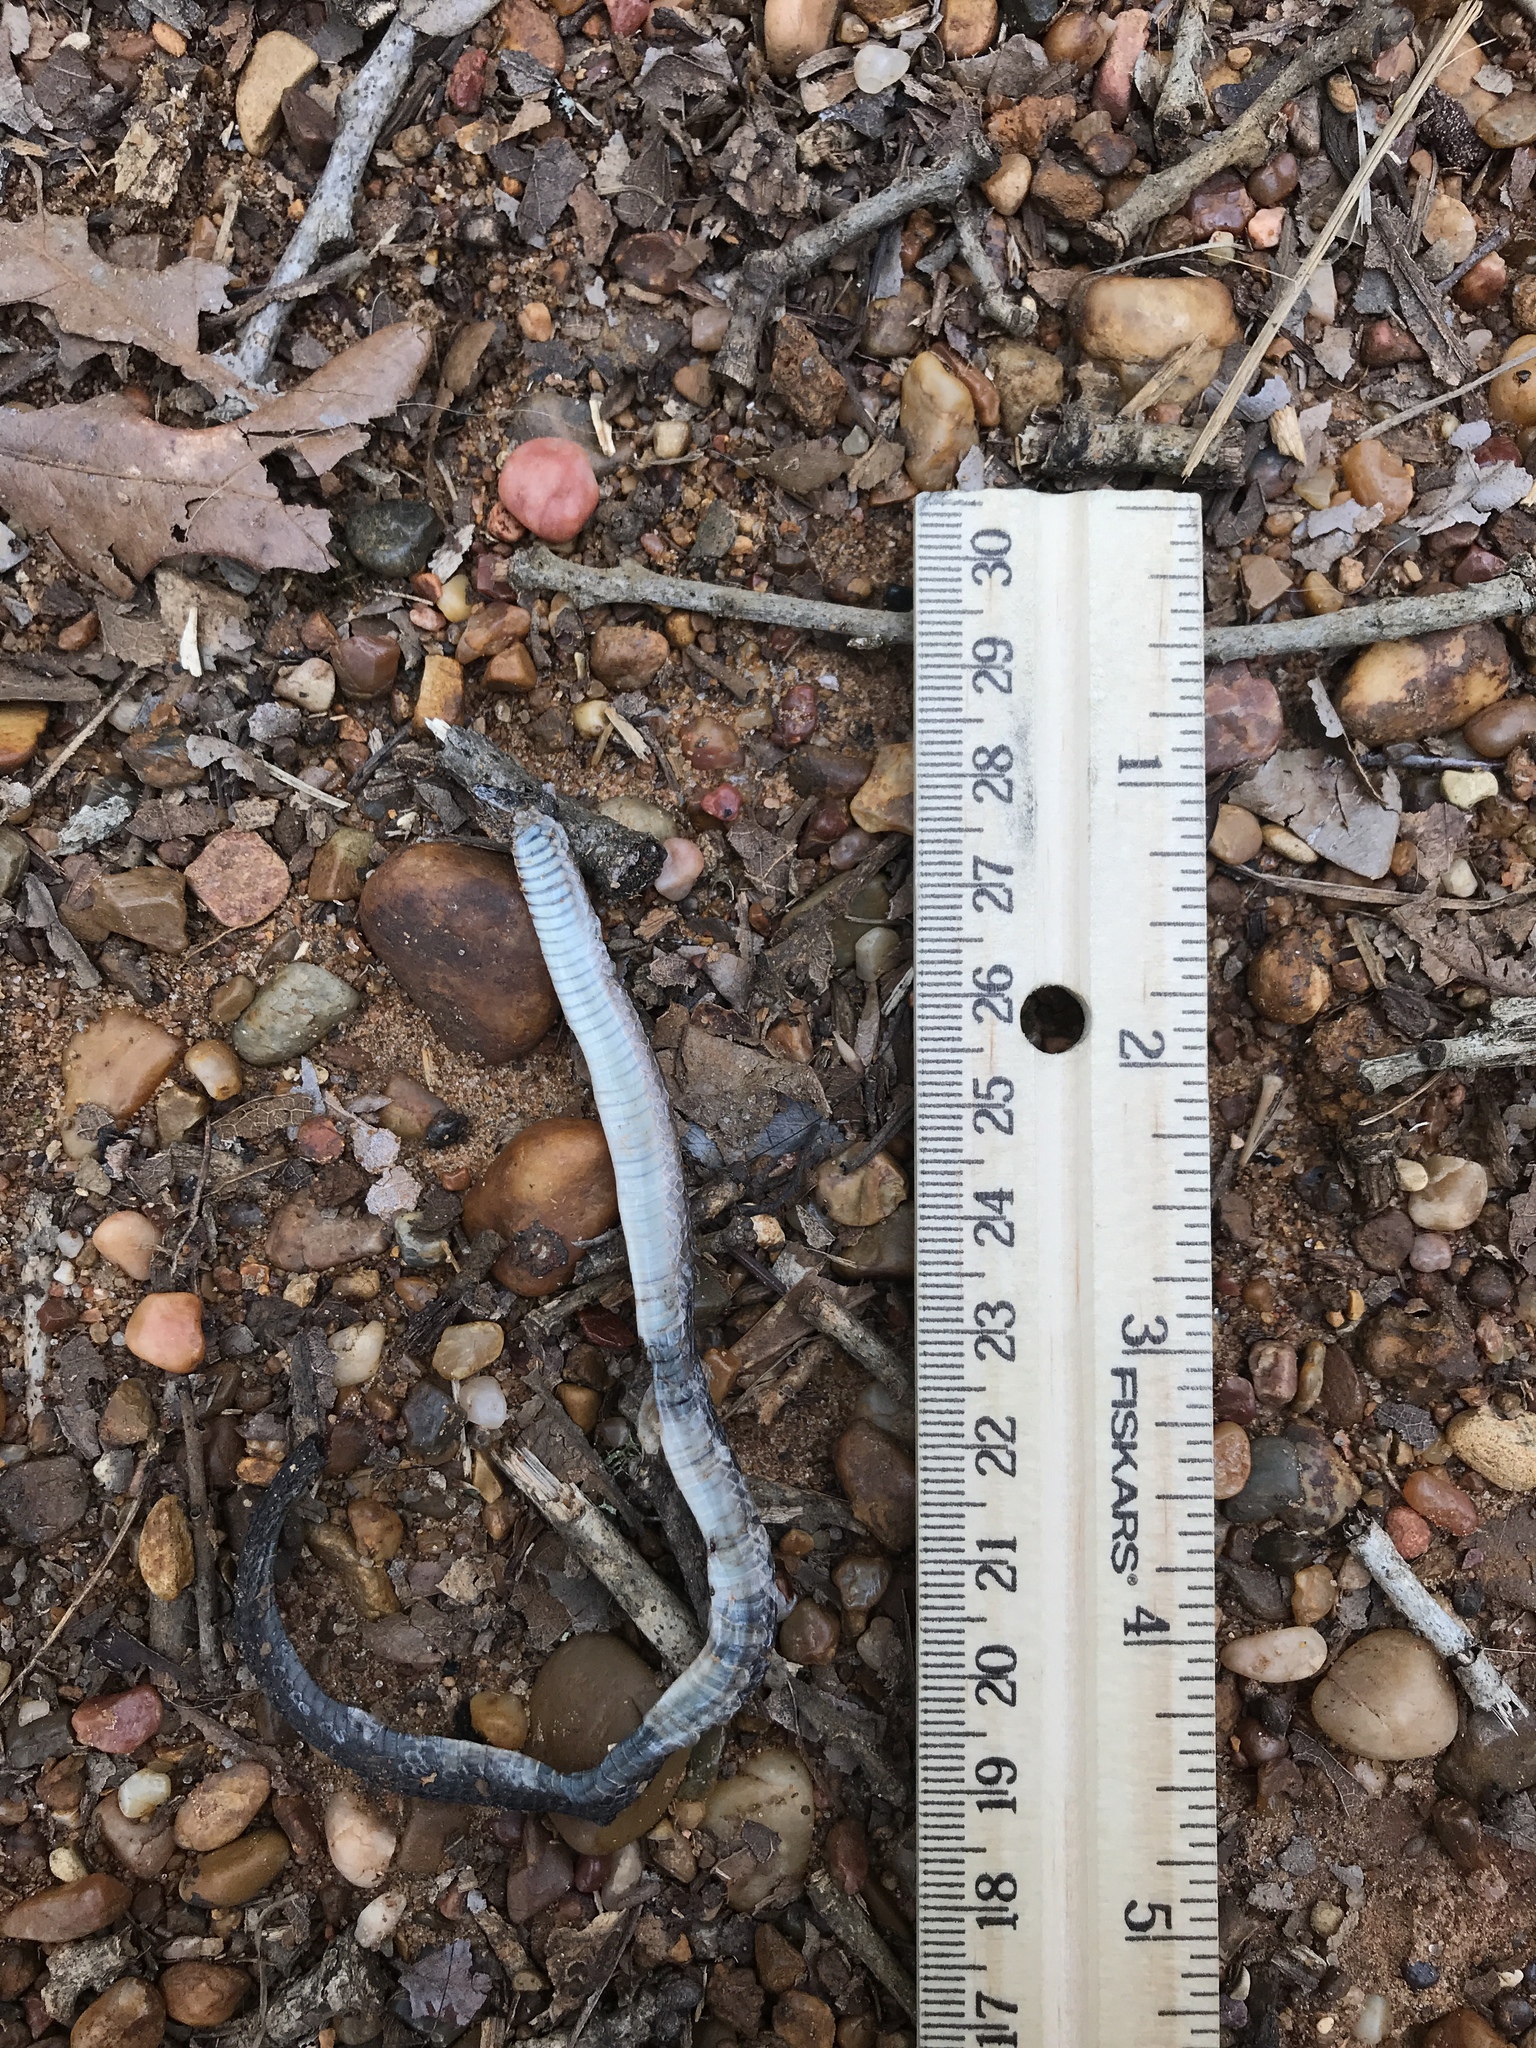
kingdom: Animalia
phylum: Chordata
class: Squamata
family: Colubridae
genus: Haldea
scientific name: Haldea striatula
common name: Rough earth snake
